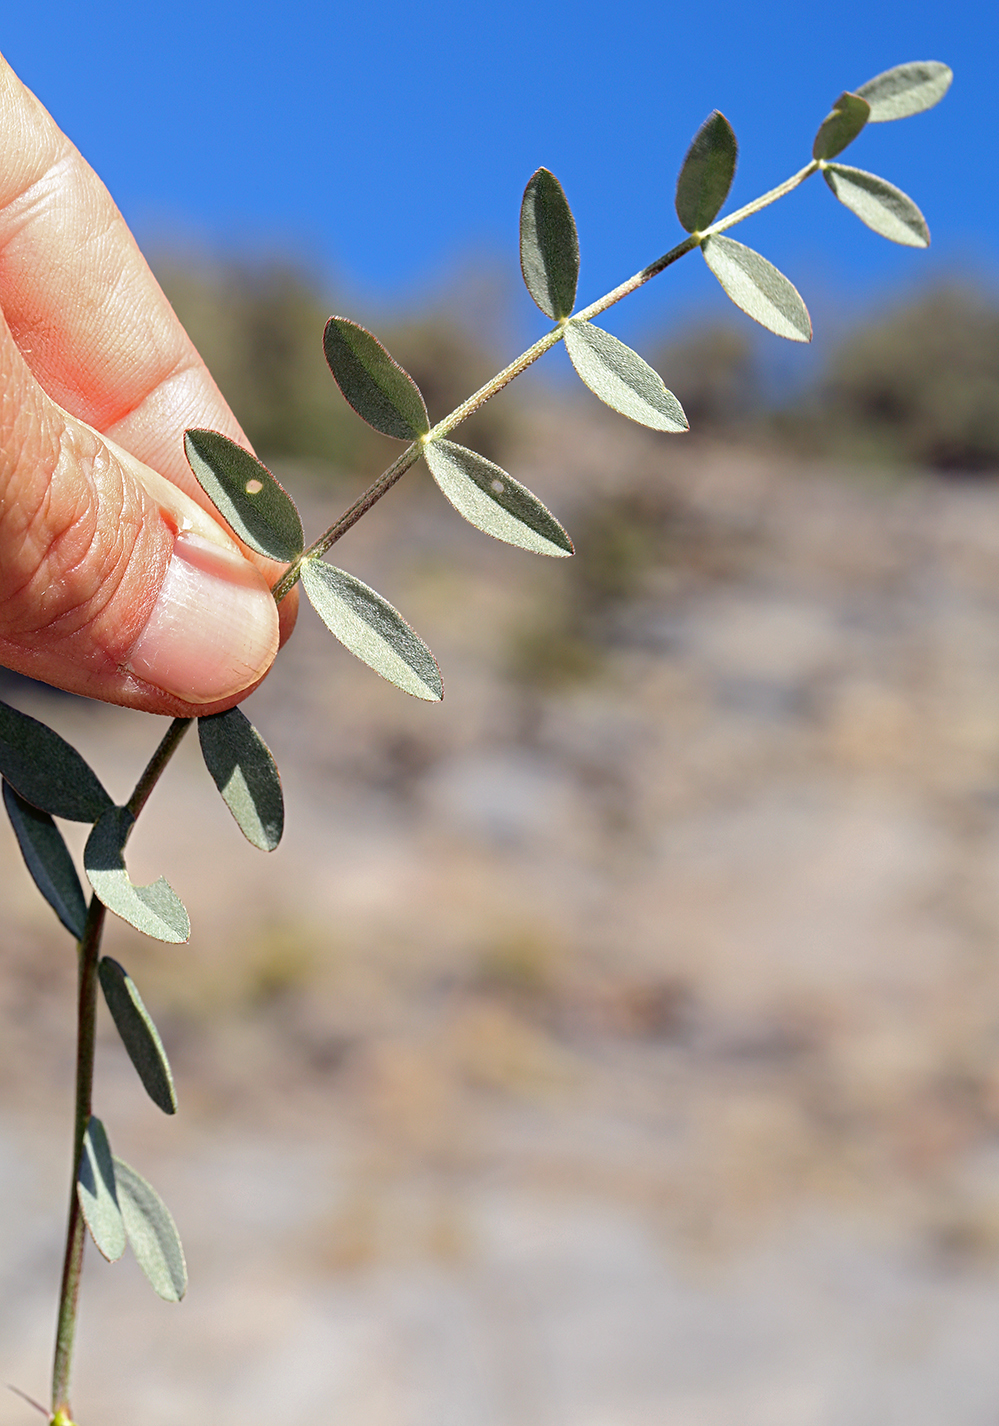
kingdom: Plantae
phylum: Tracheophyta
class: Magnoliopsida
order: Fabales
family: Fabaceae
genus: Astragalus
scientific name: Astragalus lentiginosus
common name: Freckled milkvetch
